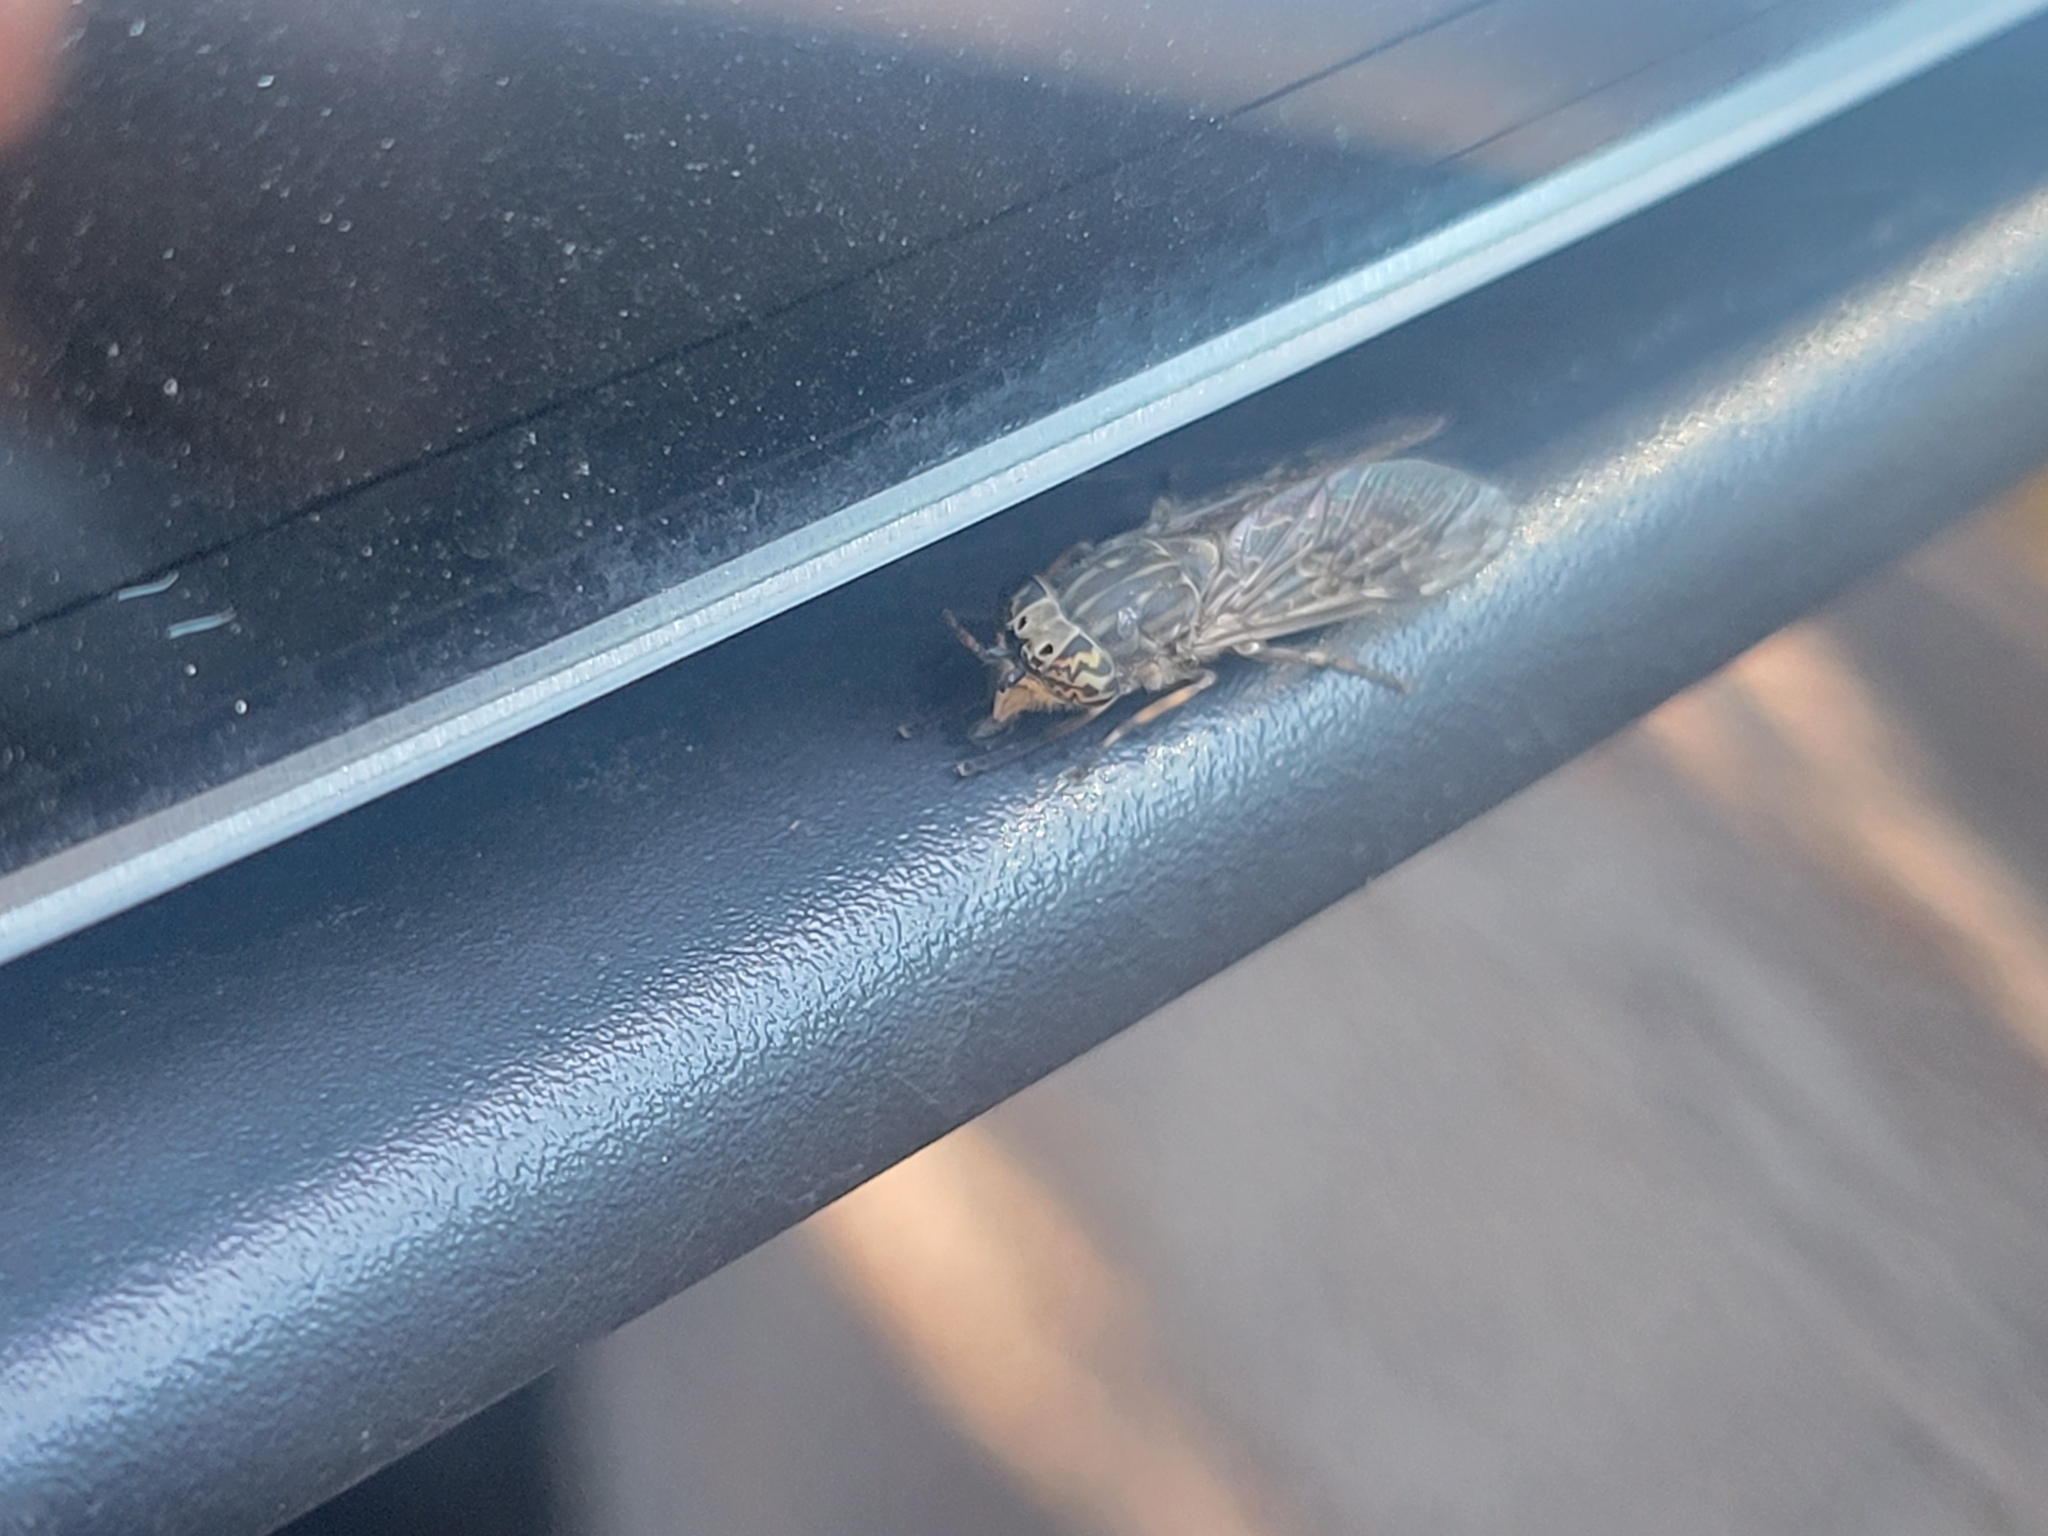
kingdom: Animalia
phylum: Arthropoda
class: Insecta
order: Diptera
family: Tabanidae
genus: Haematopota
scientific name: Haematopota pluvialis
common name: Common horse fly
